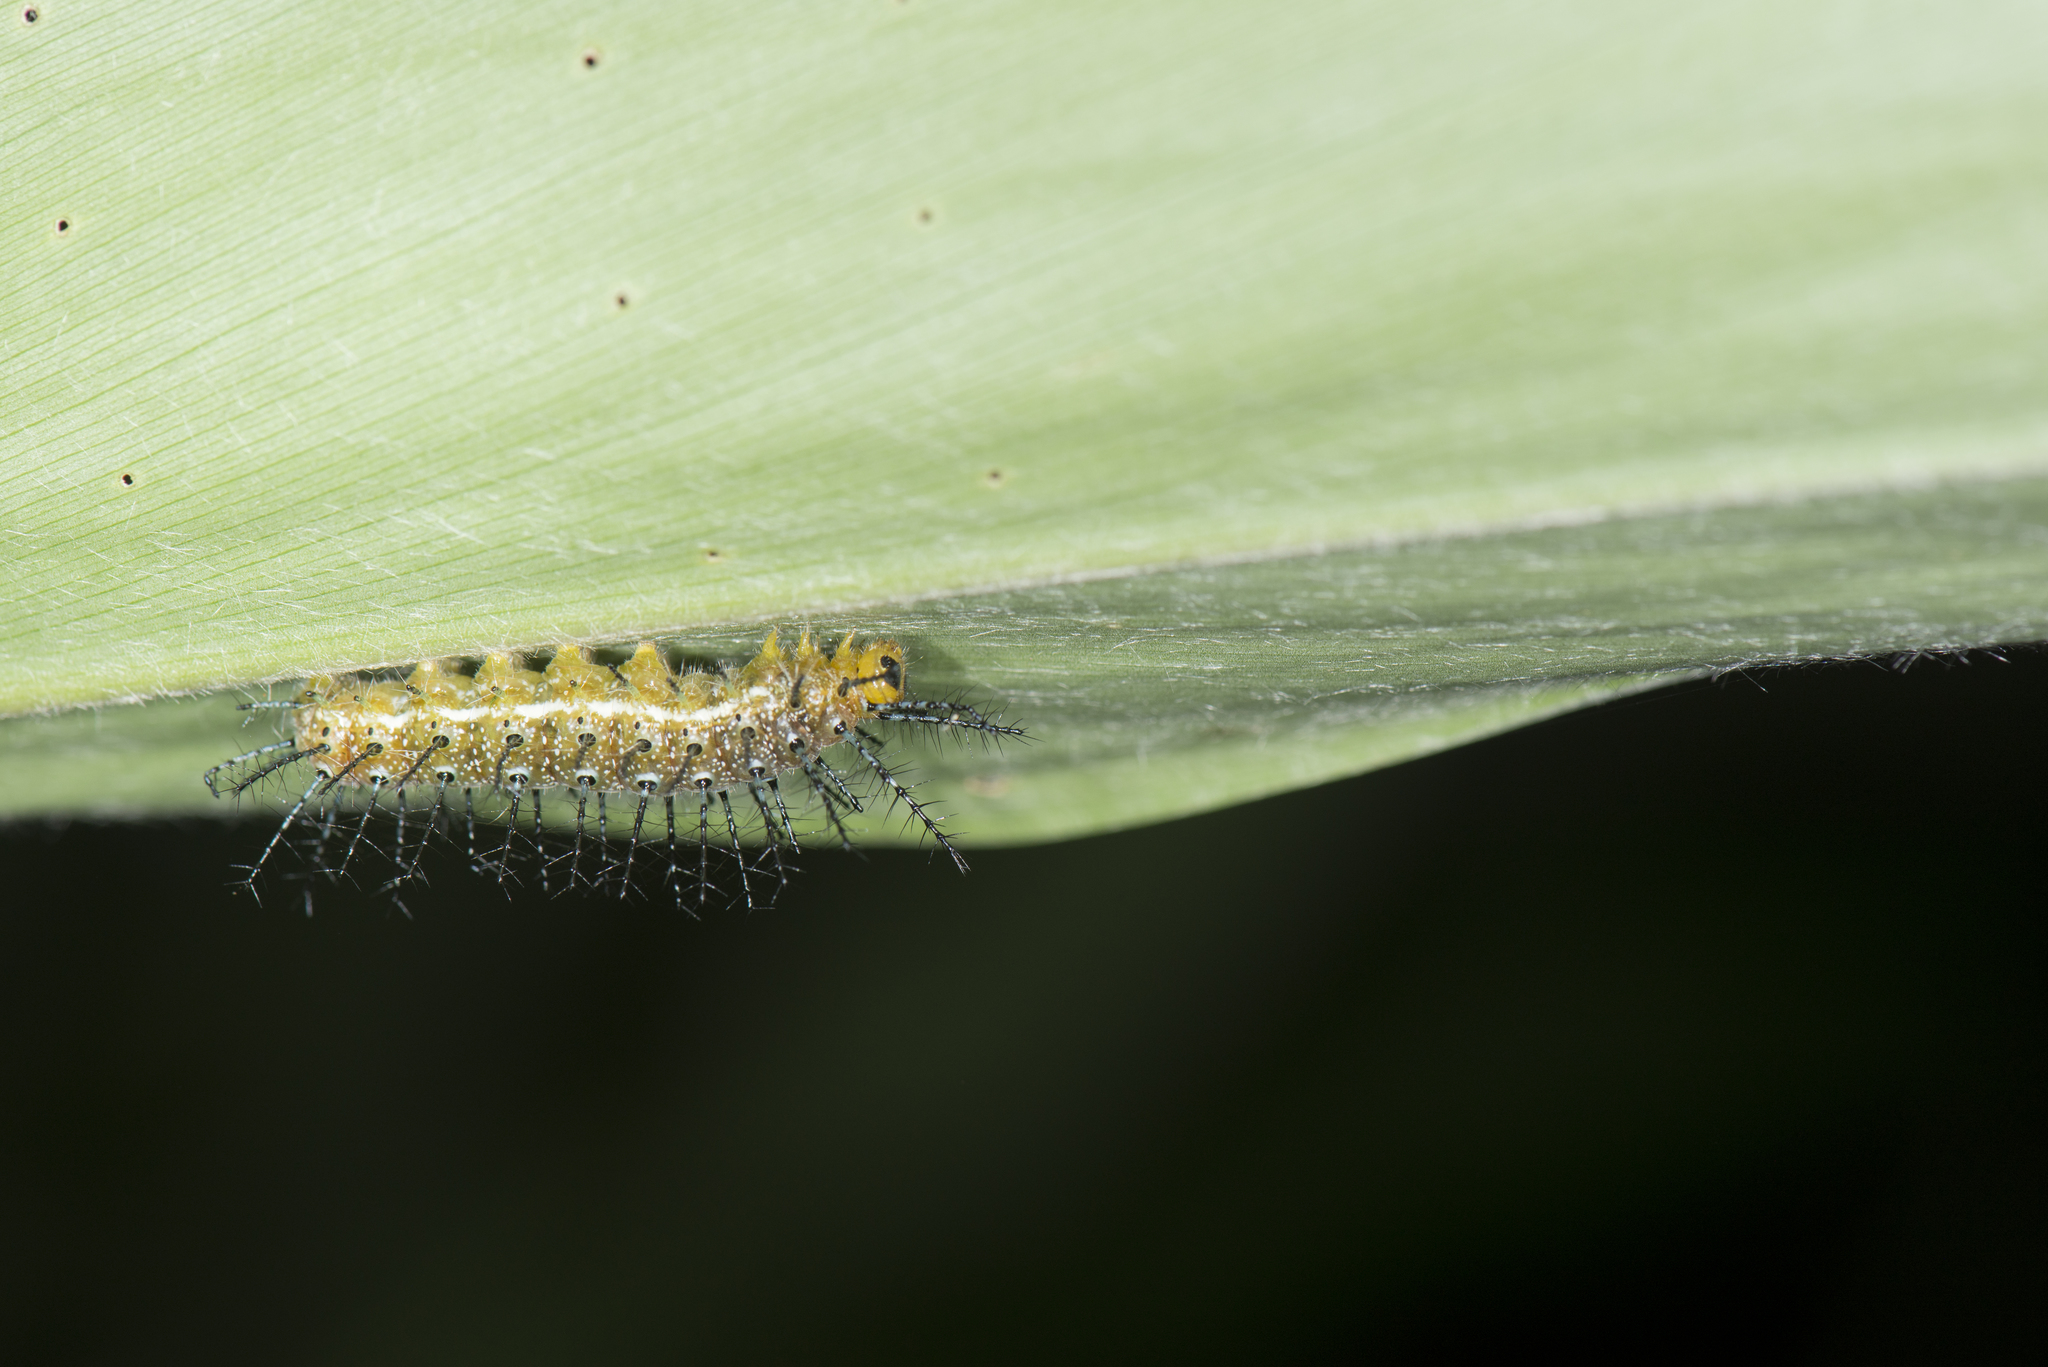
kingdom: Animalia
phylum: Arthropoda
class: Insecta
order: Lepidoptera
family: Nymphalidae
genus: Cupha
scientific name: Cupha erymanthis
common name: Rustic
